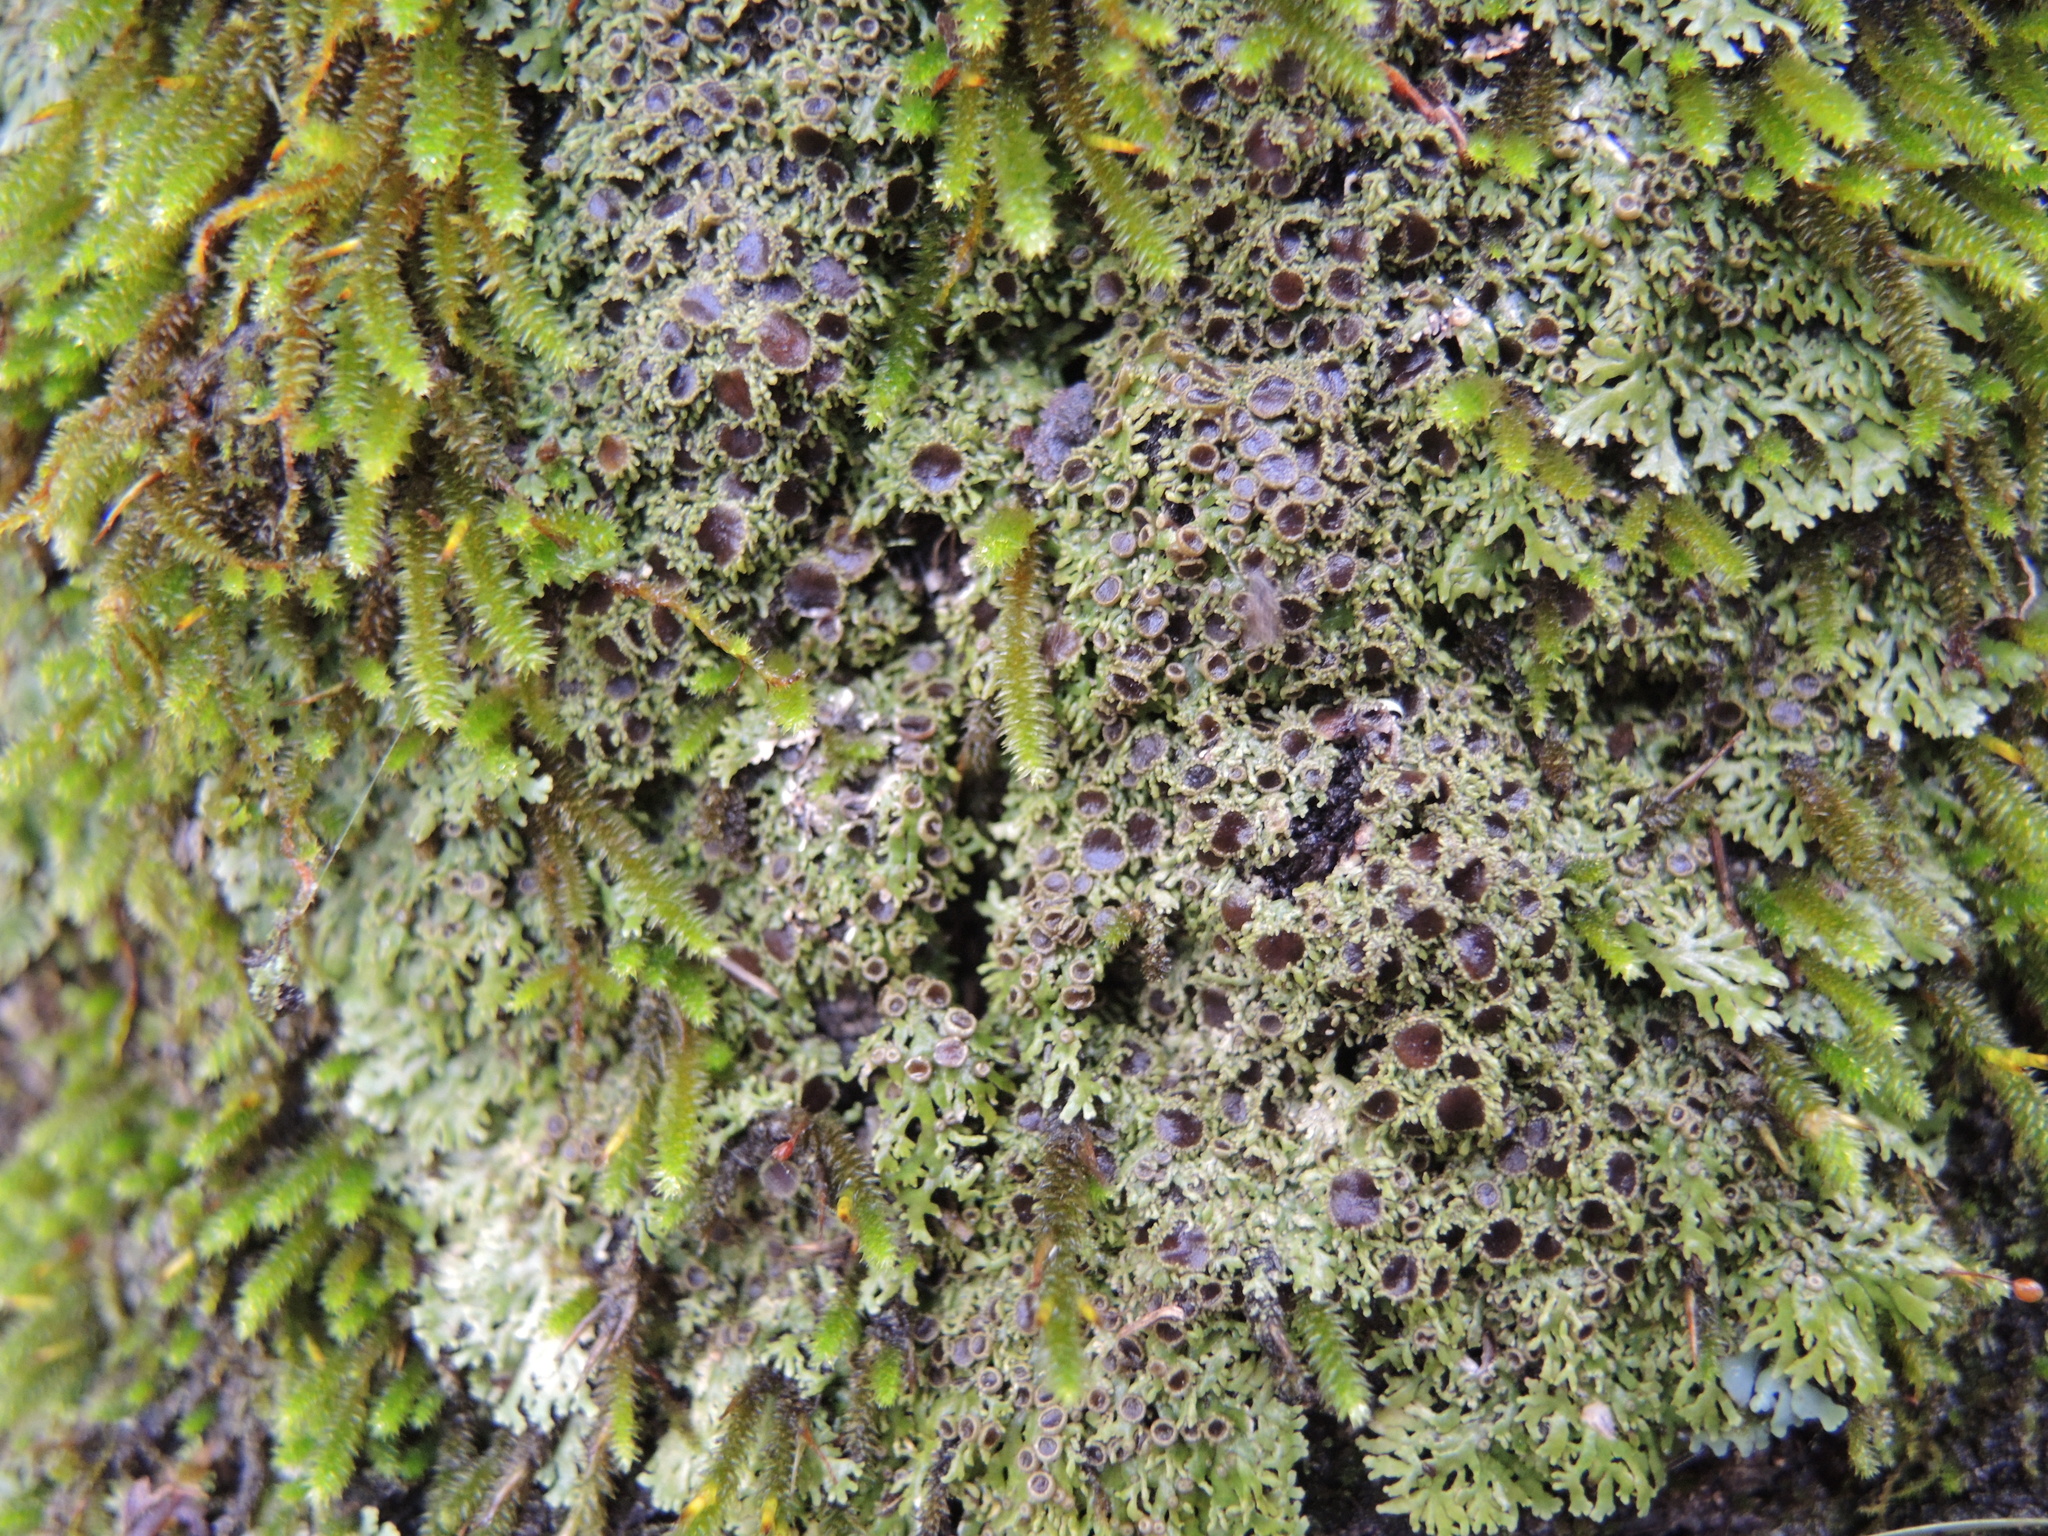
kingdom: Fungi
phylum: Ascomycota
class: Lecanoromycetes
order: Caliciales
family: Physciaceae
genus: Kurokawia
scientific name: Kurokawia palmulata
